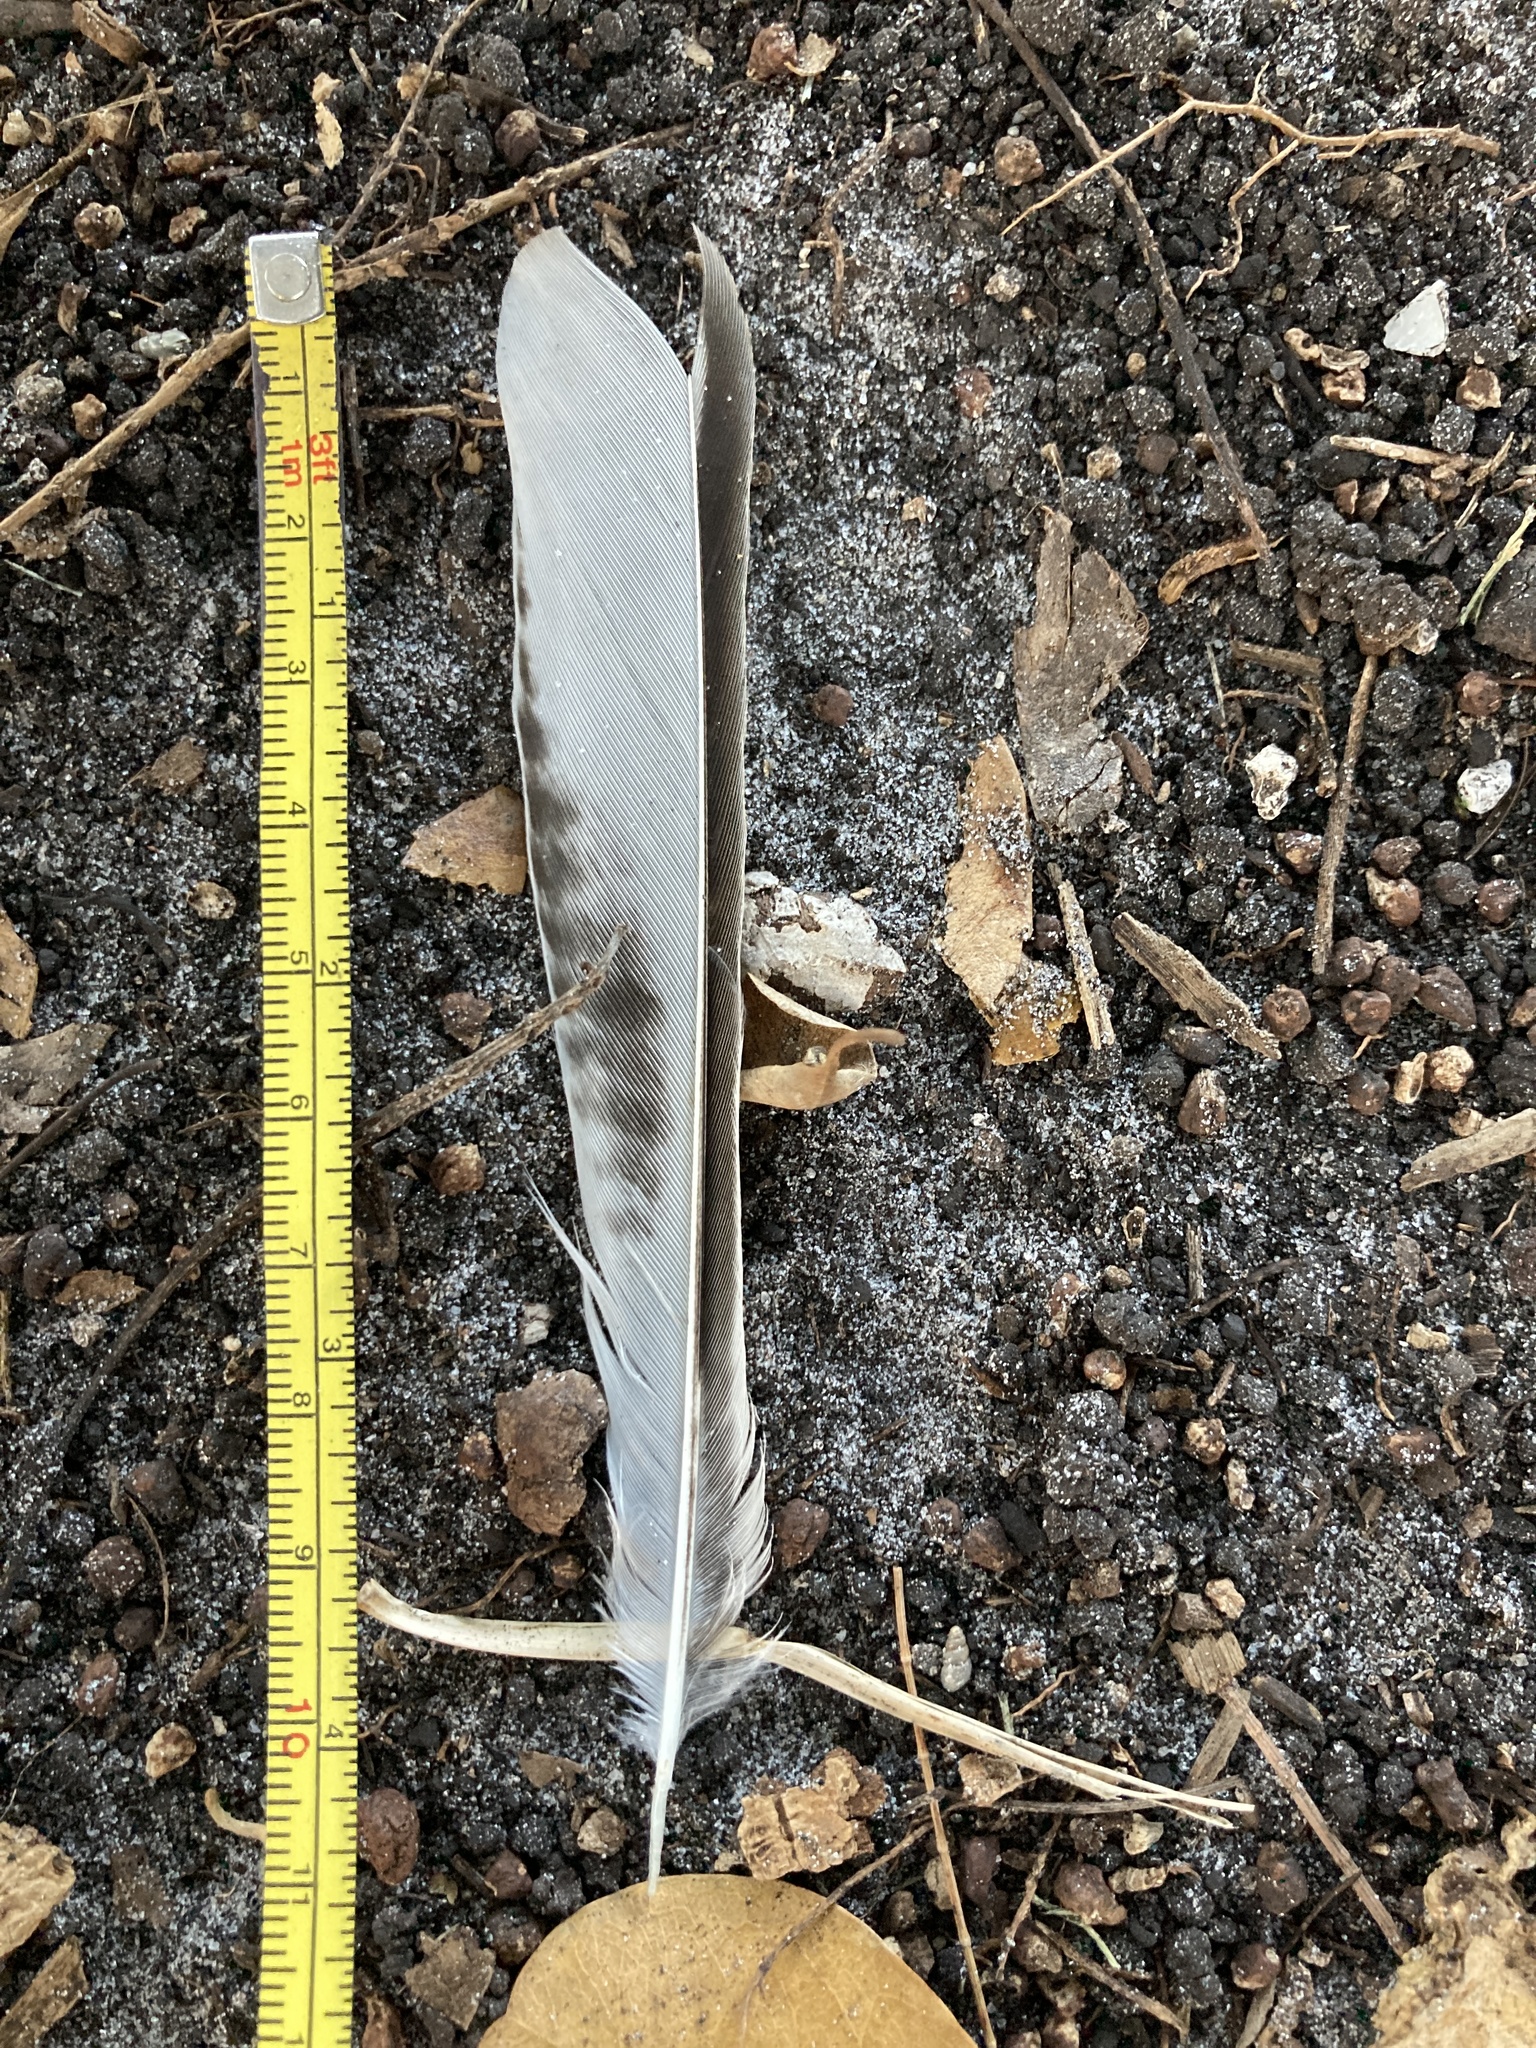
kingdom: Animalia
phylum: Chordata
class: Aves
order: Passeriformes
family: Mimidae
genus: Mimus
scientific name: Mimus polyglottos
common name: Northern mockingbird
